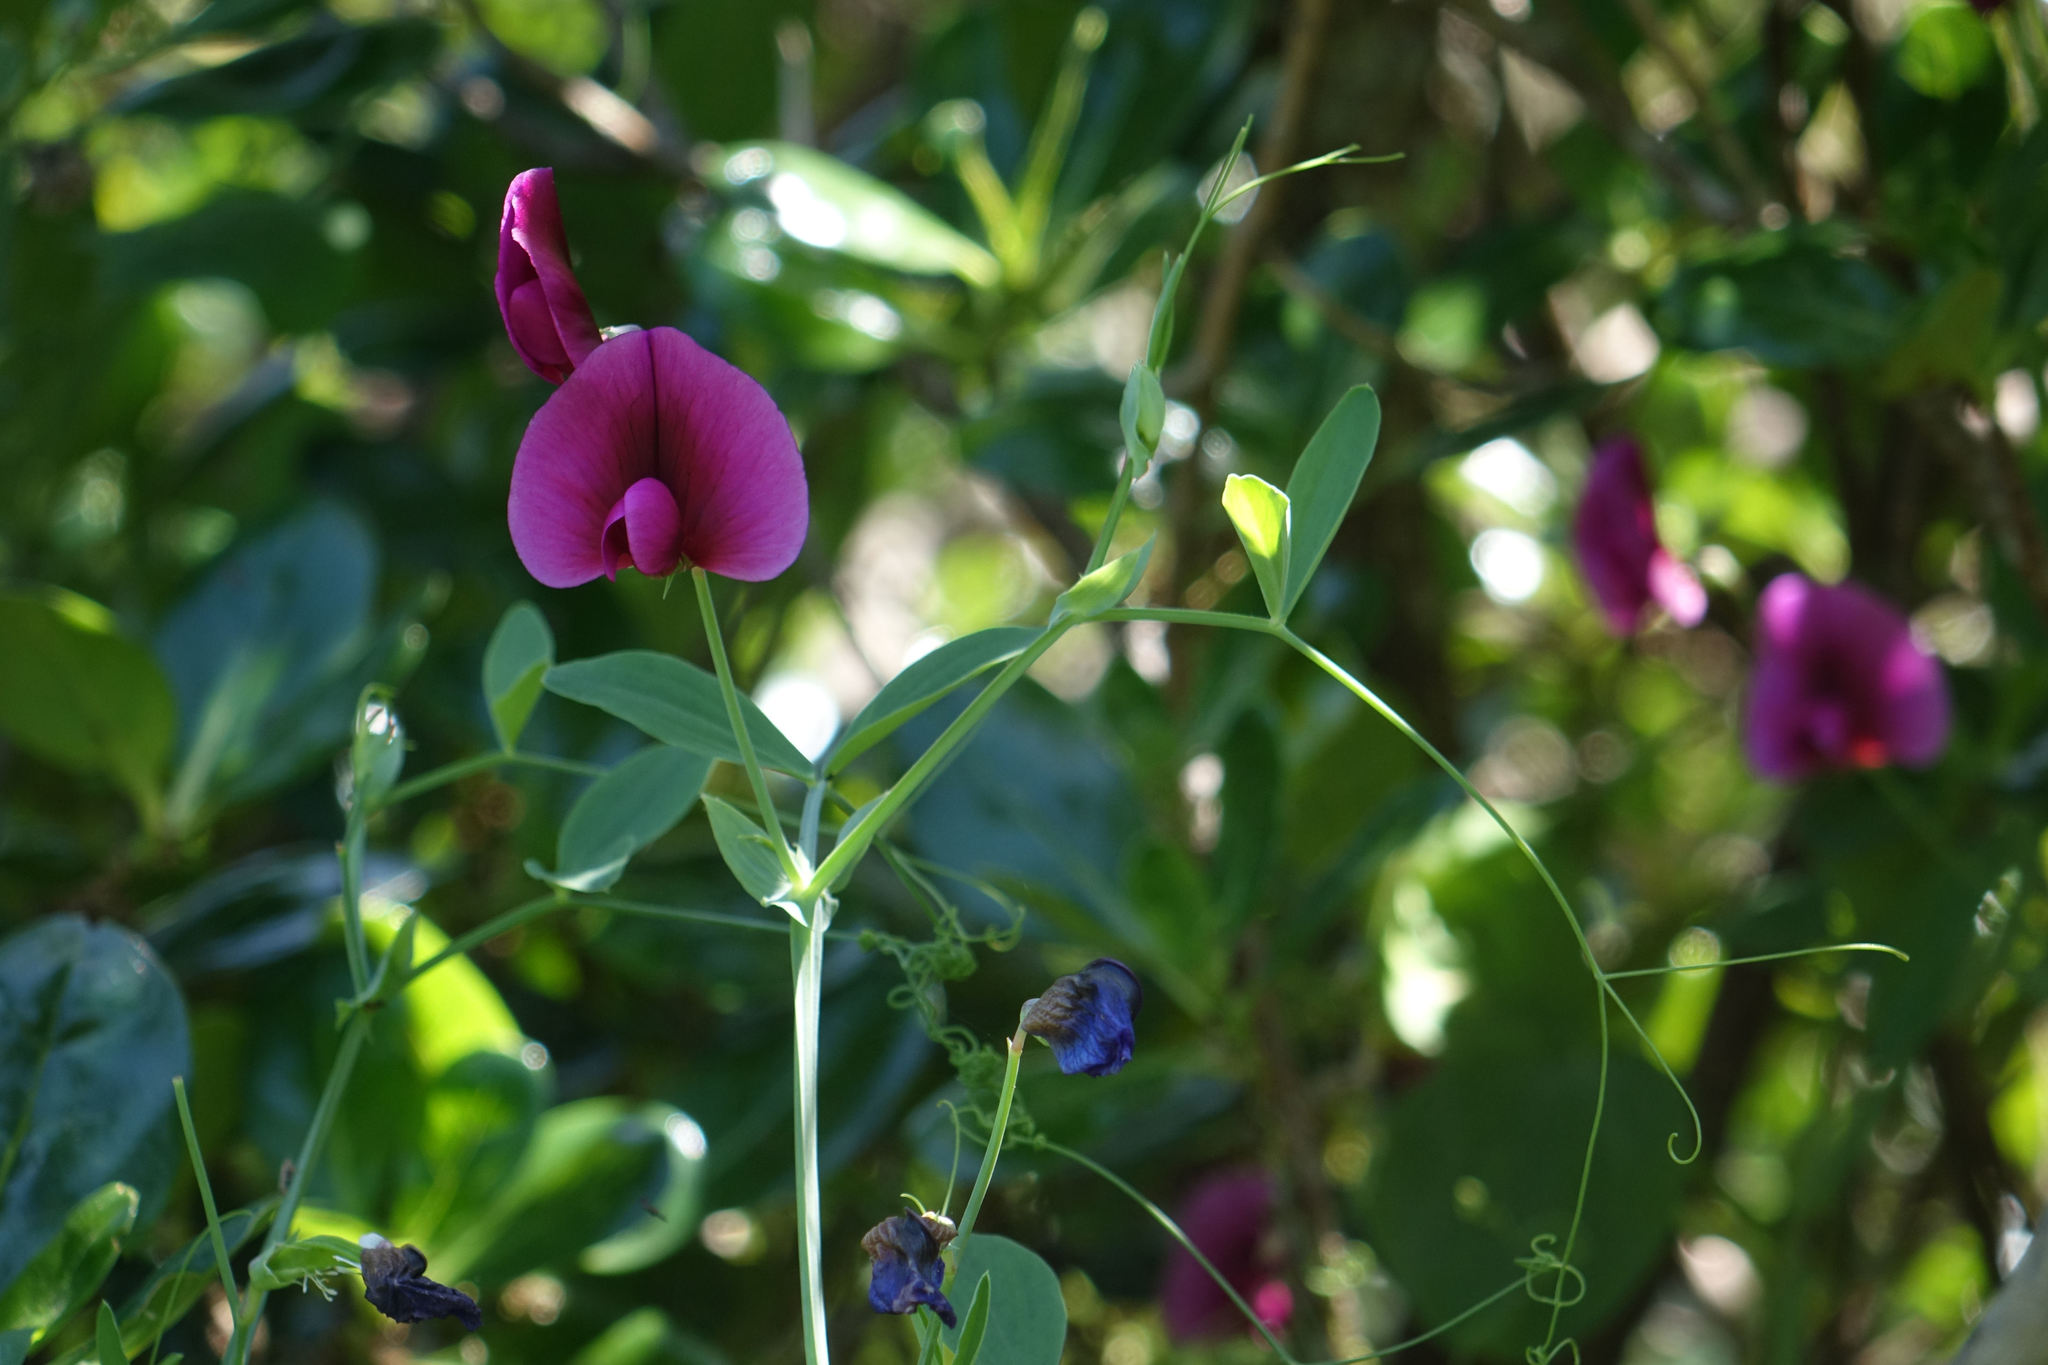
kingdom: Plantae
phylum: Tracheophyta
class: Magnoliopsida
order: Fabales
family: Fabaceae
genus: Lathyrus
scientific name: Lathyrus tingitanus
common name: Tangier pea
